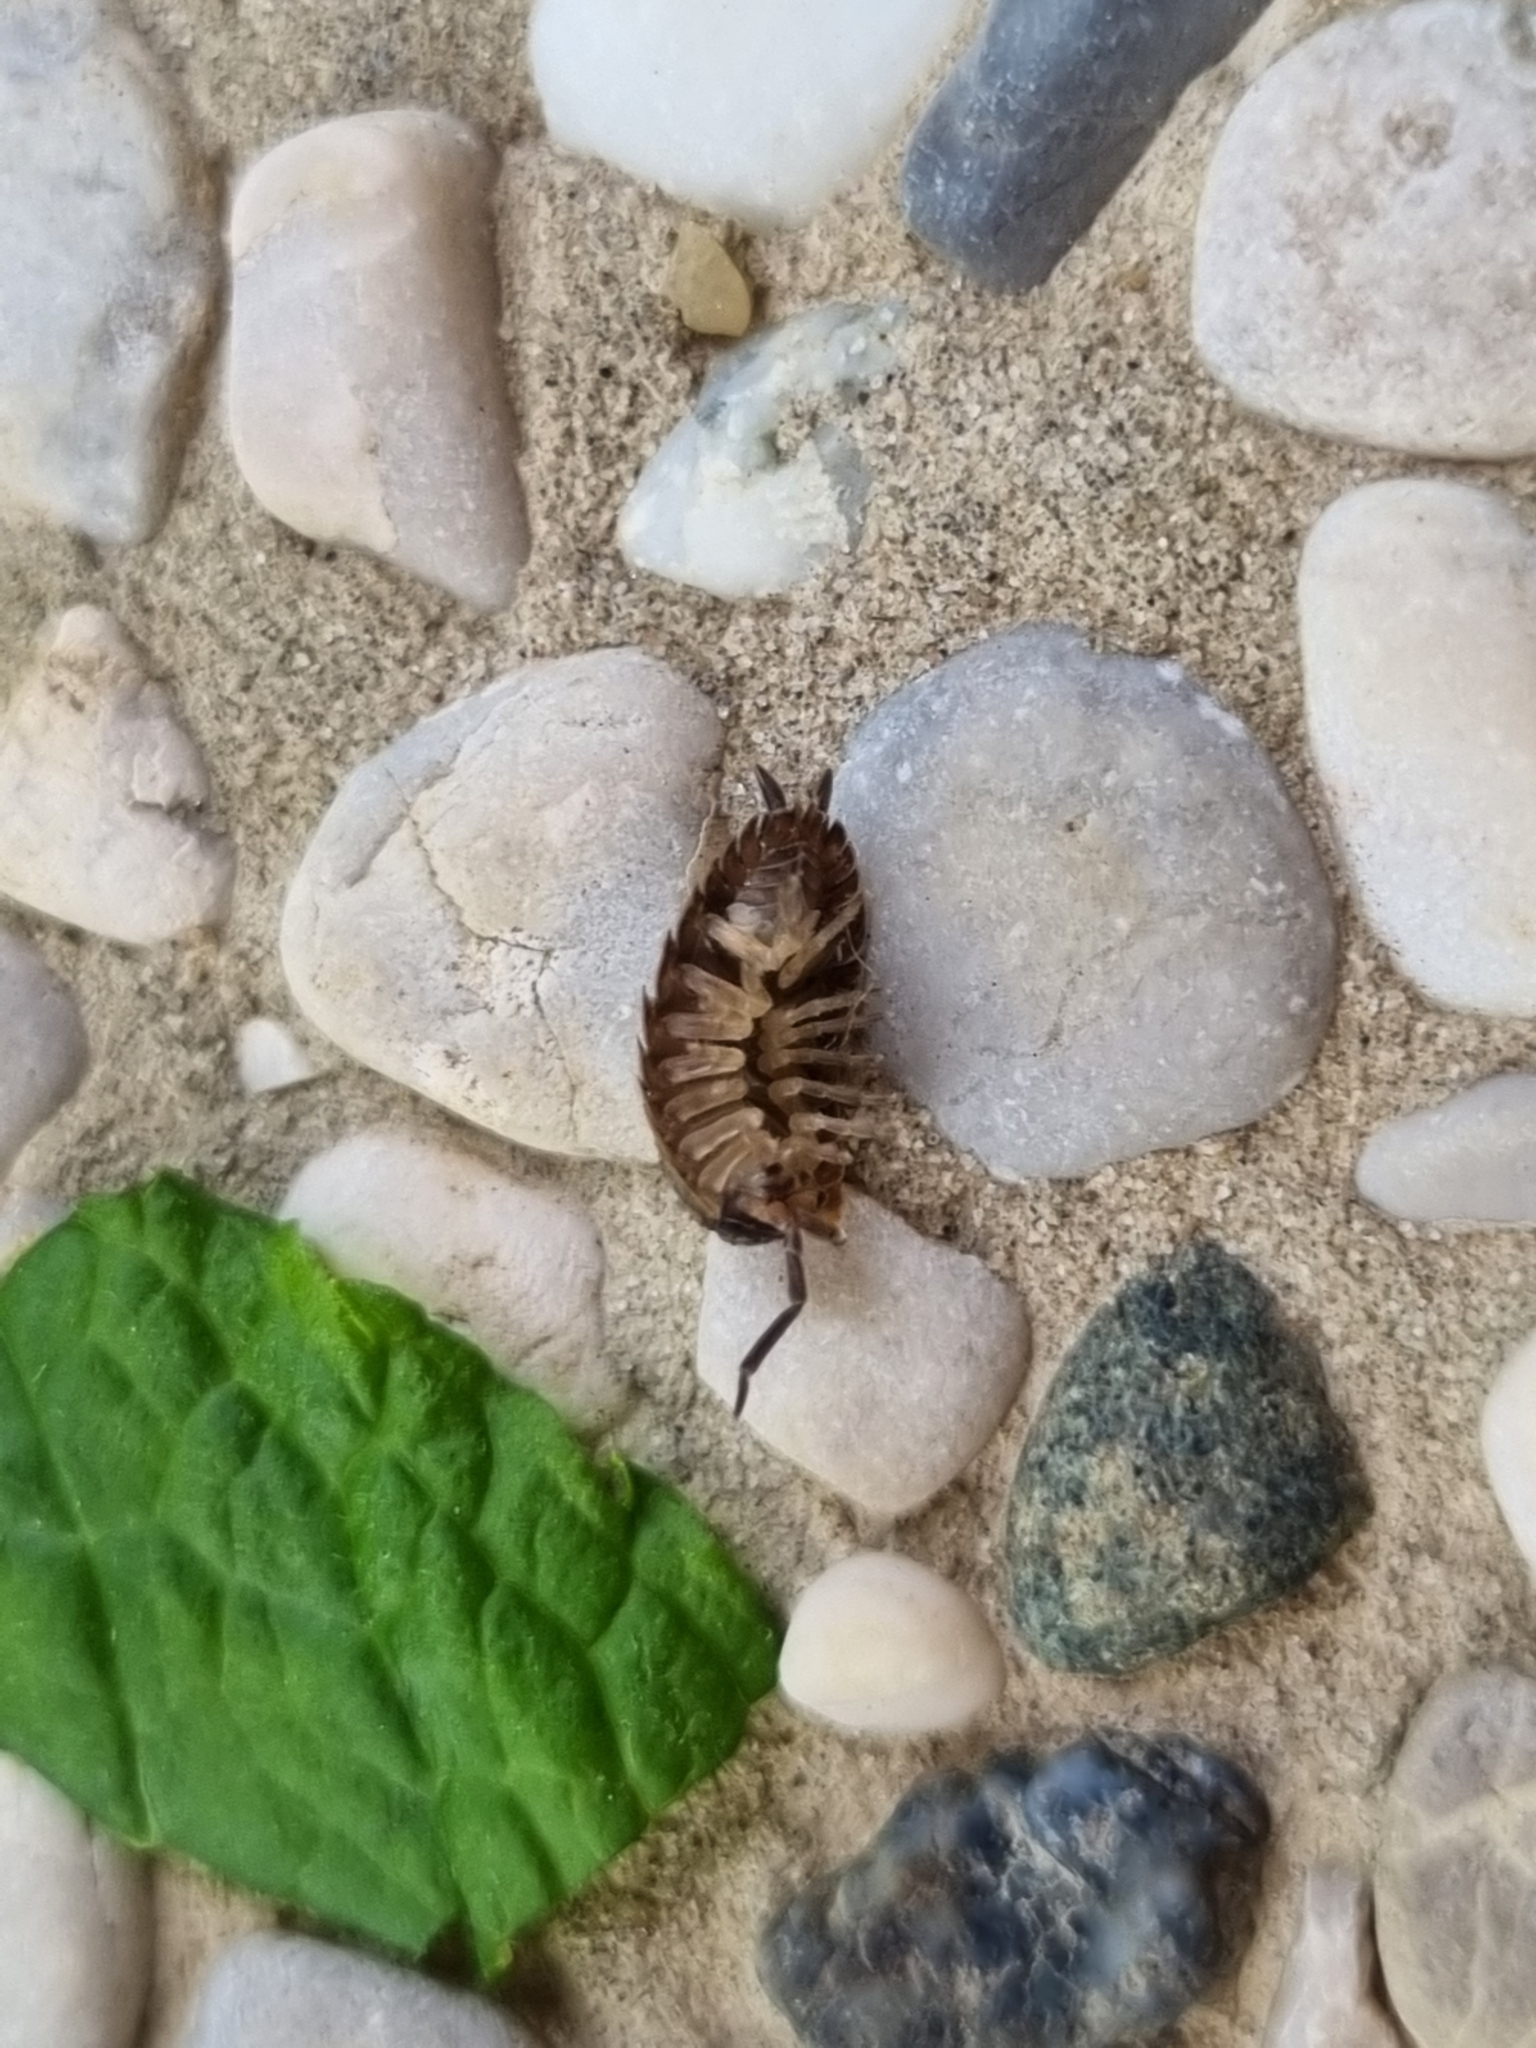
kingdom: Animalia
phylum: Arthropoda
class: Malacostraca
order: Isopoda
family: Porcellionidae
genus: Porcellio
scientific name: Porcellio scaber
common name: Common rough woodlouse
